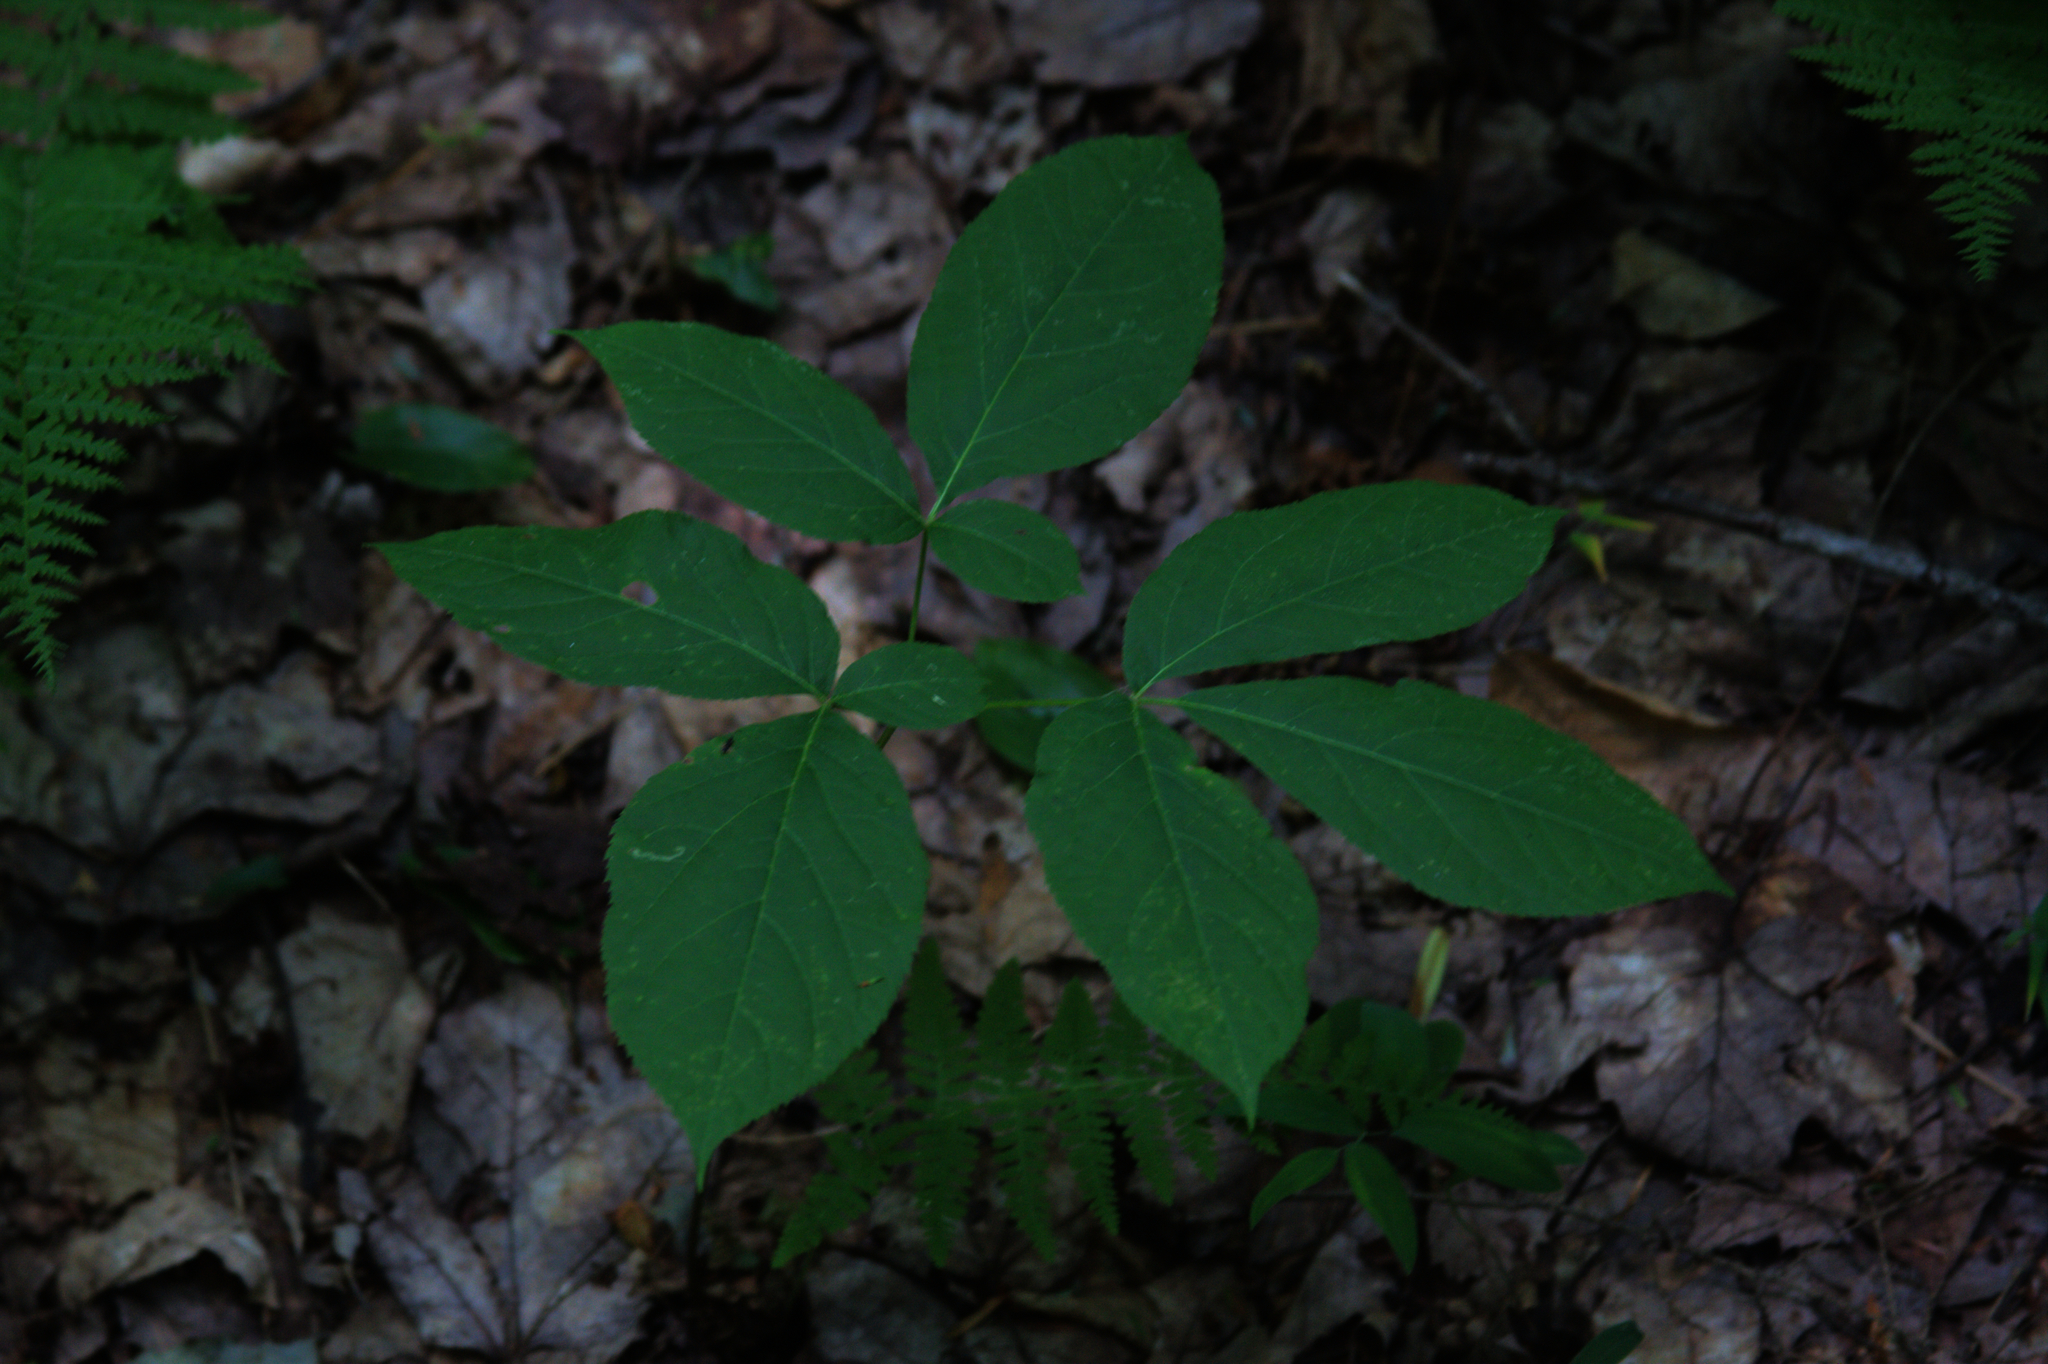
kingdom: Plantae
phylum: Tracheophyta
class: Magnoliopsida
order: Apiales
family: Araliaceae
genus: Aralia
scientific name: Aralia nudicaulis
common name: Wild sarsaparilla
